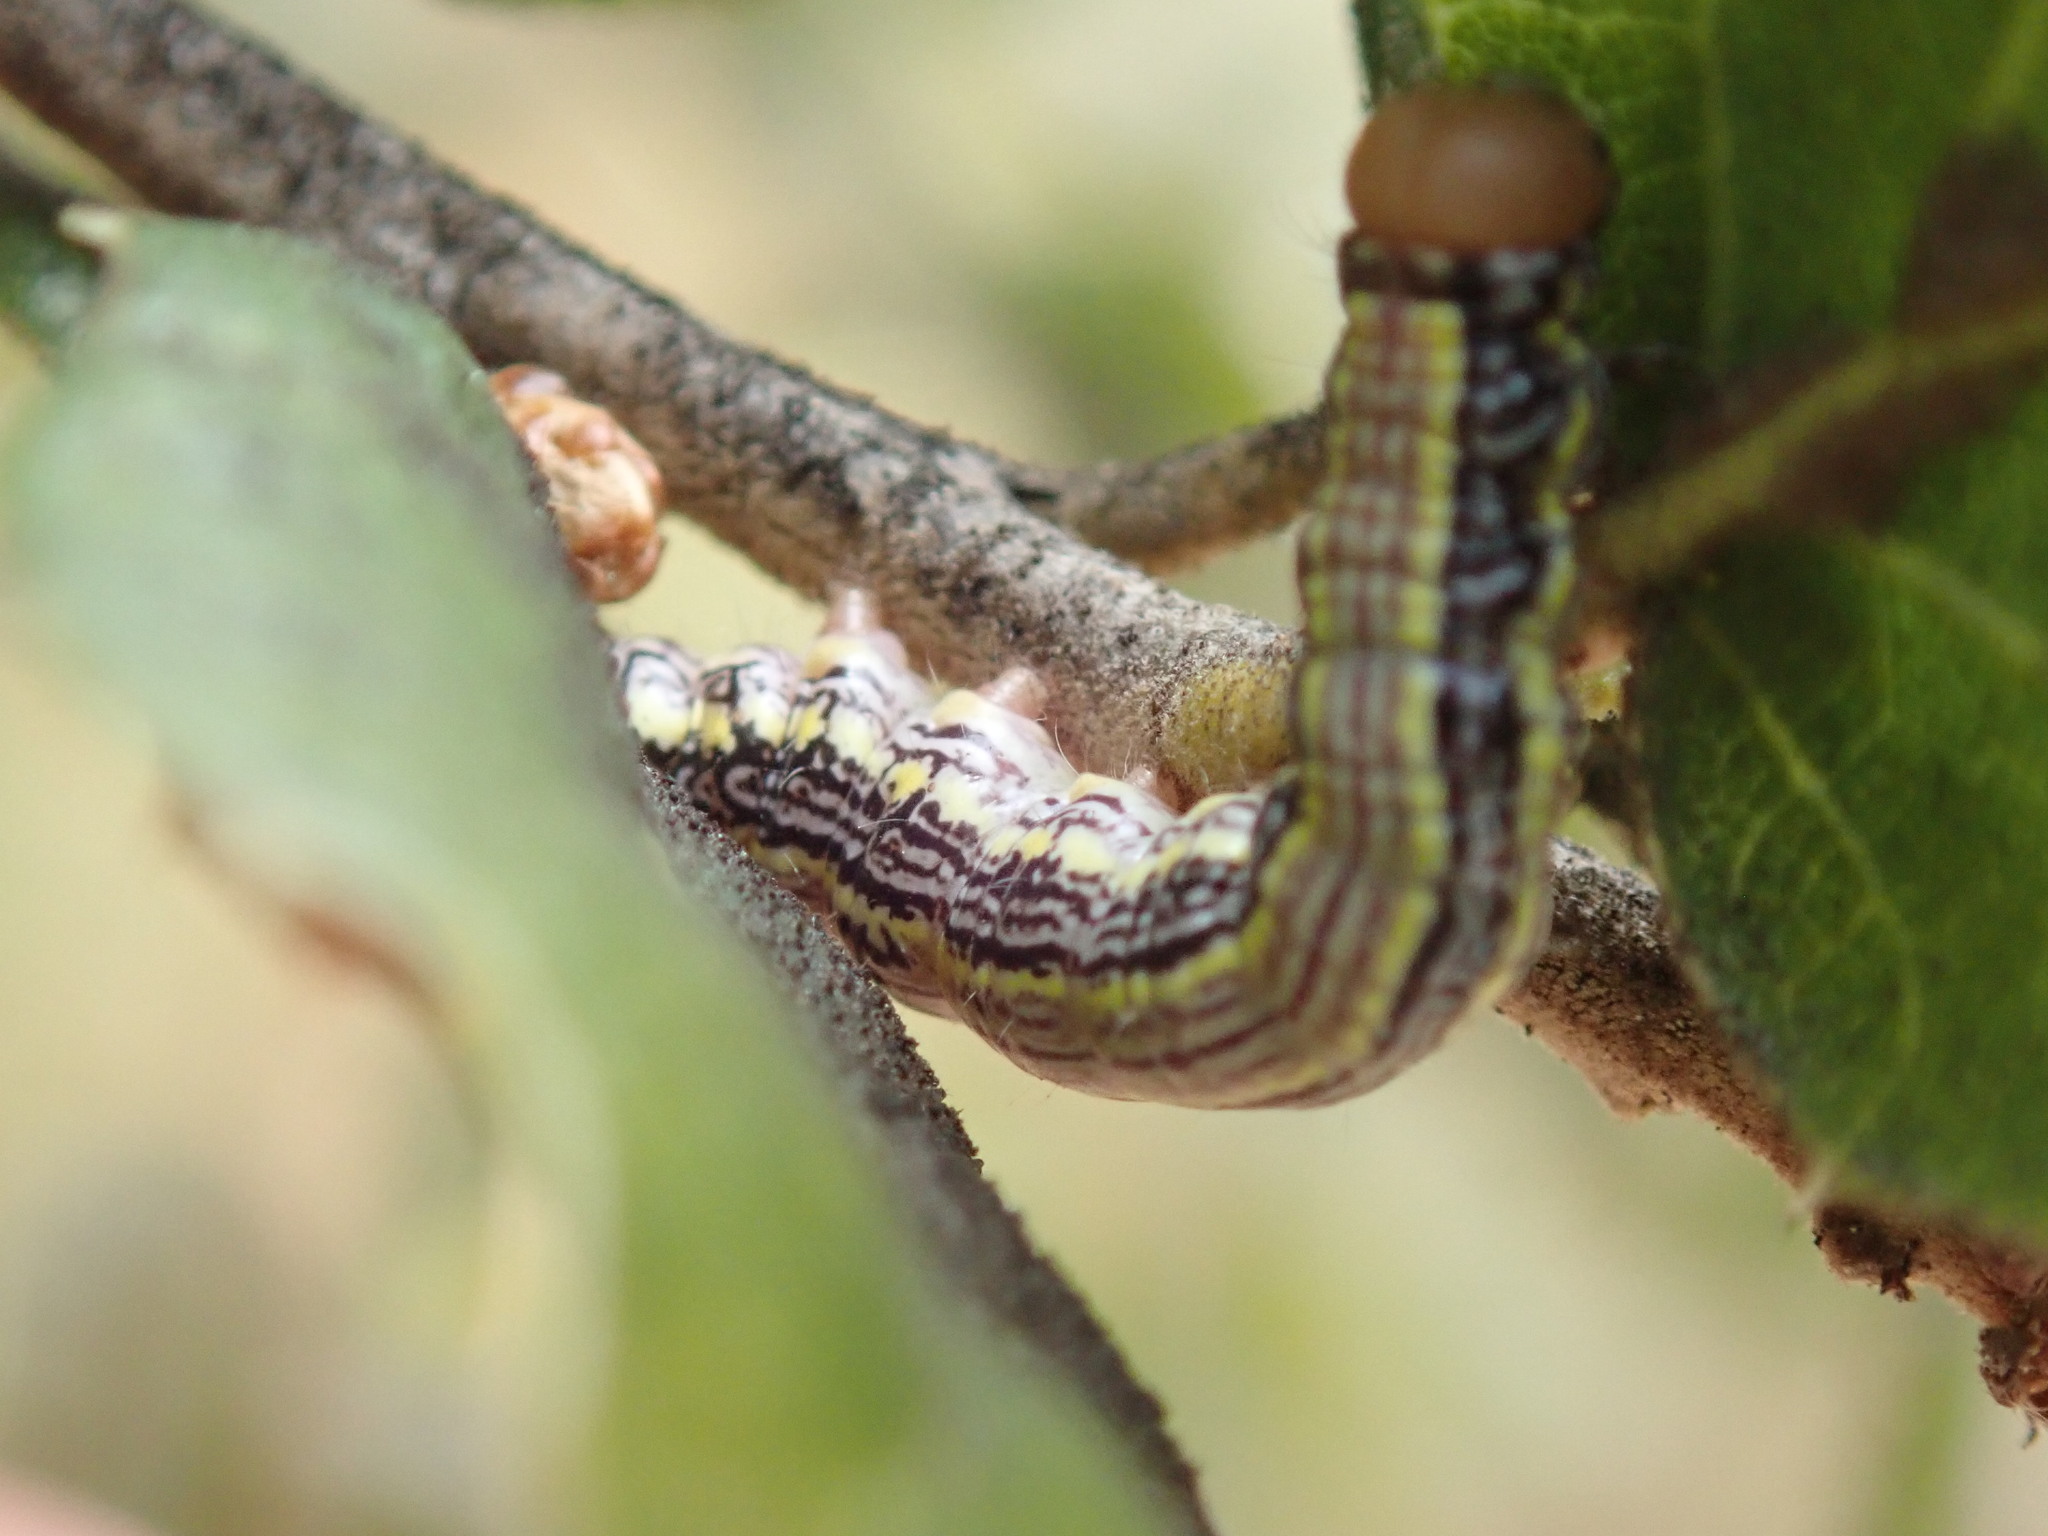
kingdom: Animalia
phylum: Arthropoda
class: Insecta
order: Lepidoptera
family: Notodontidae
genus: Phryganidia
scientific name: Phryganidia californica
